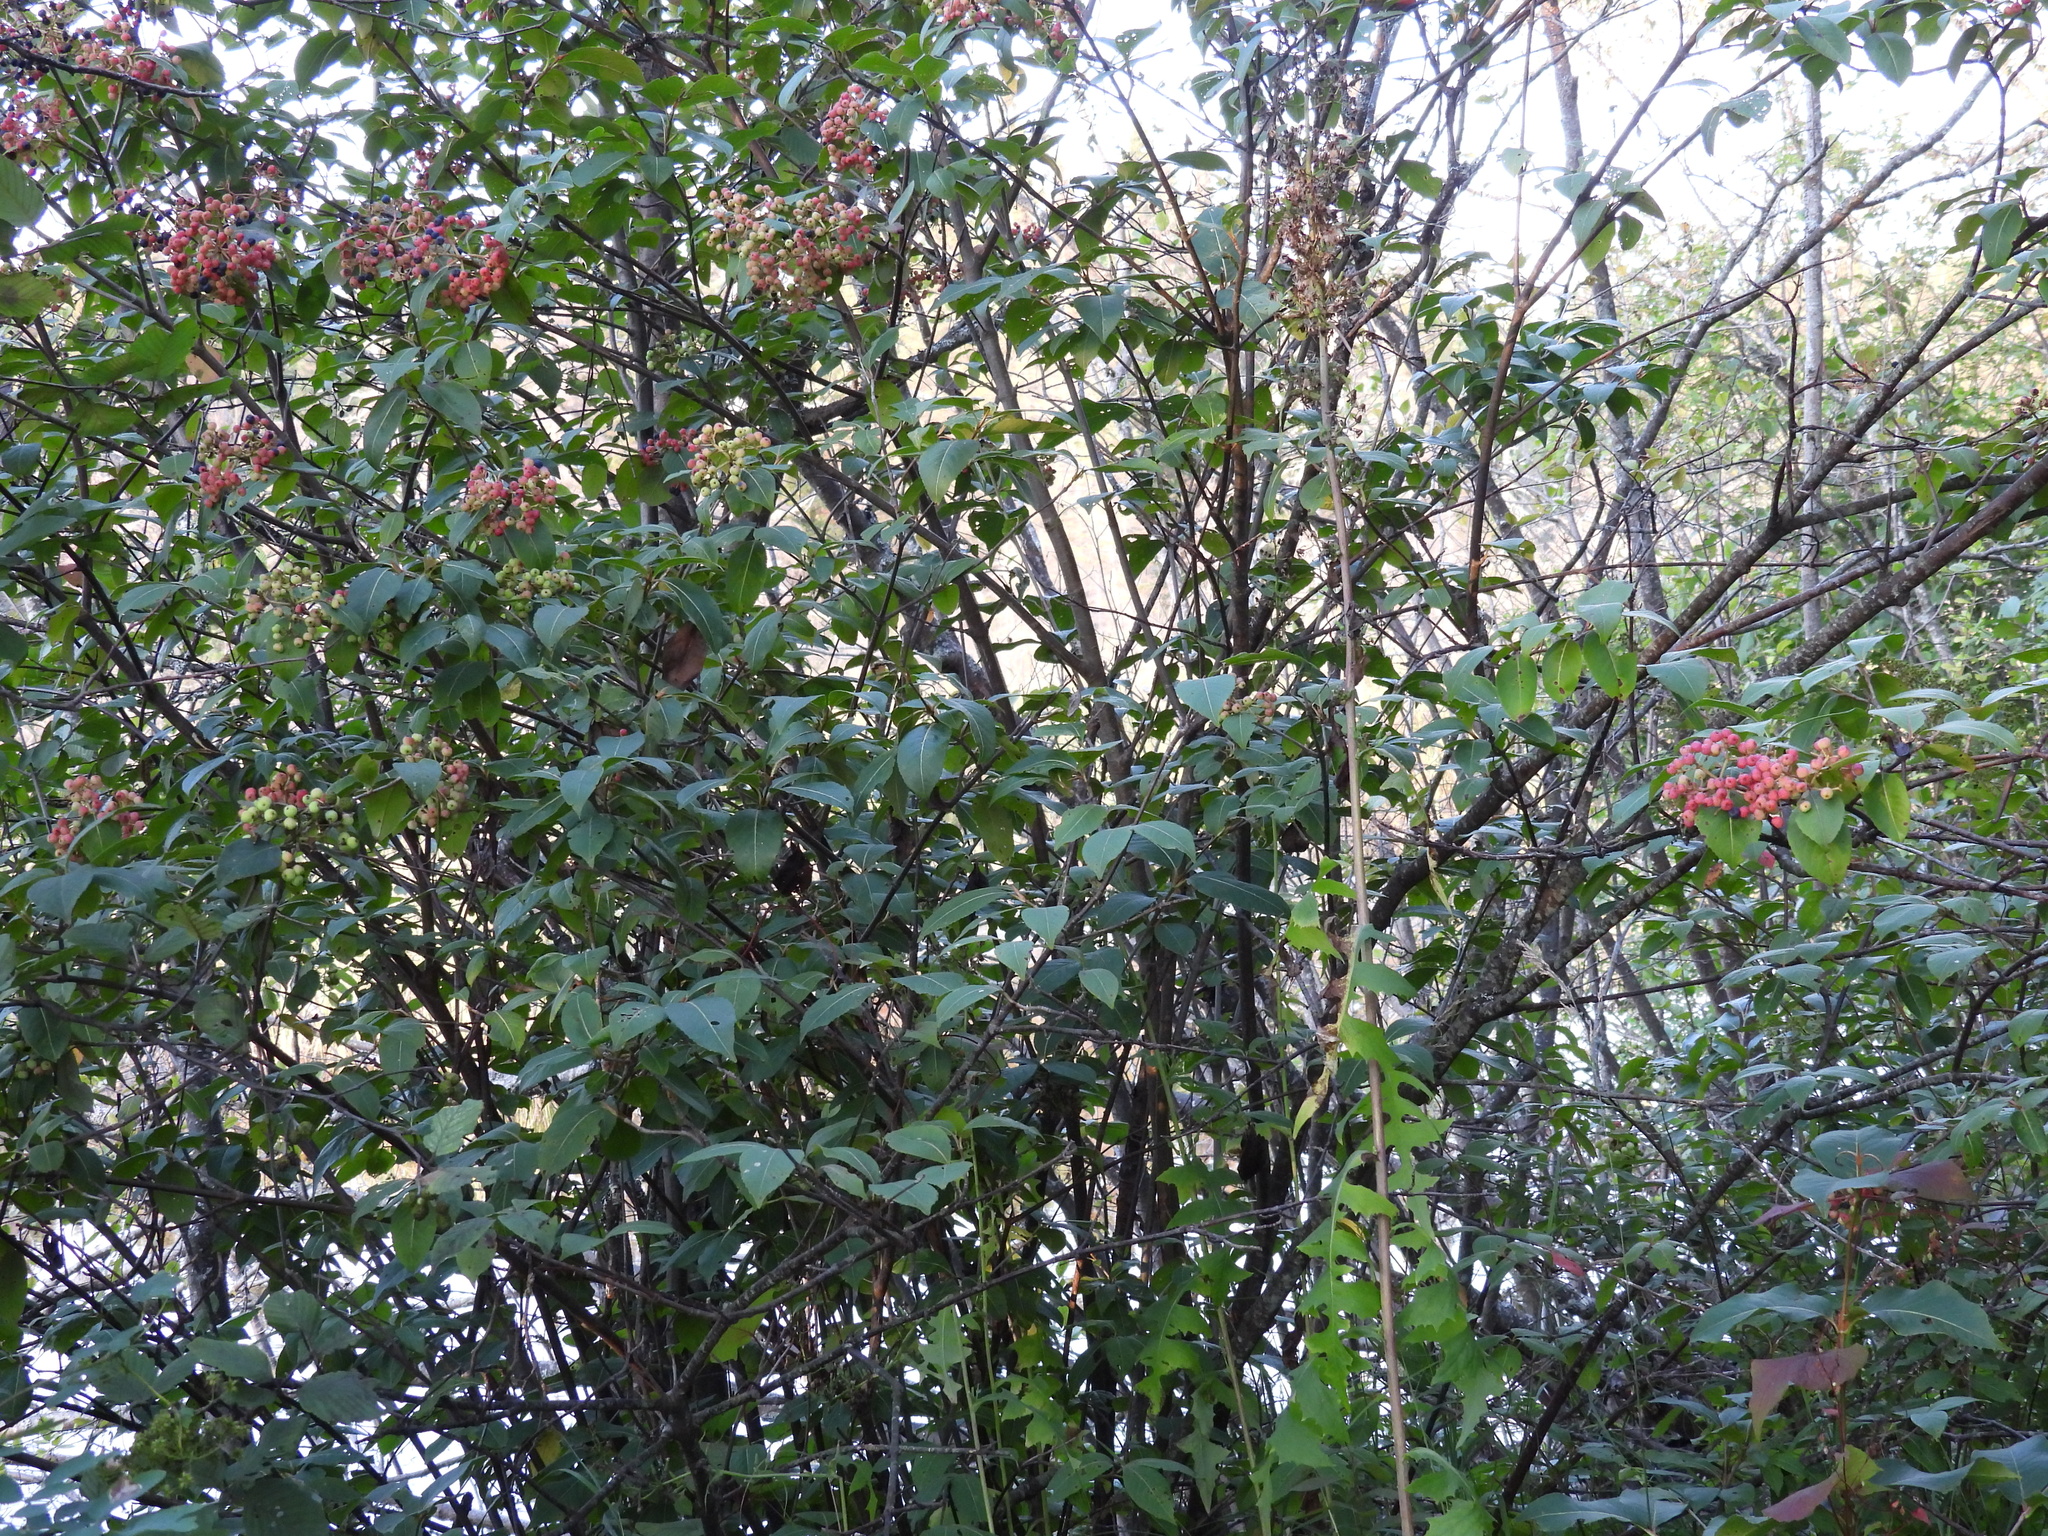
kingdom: Plantae
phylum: Tracheophyta
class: Magnoliopsida
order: Dipsacales
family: Viburnaceae
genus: Viburnum
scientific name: Viburnum cassinoides
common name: Swamp haw
